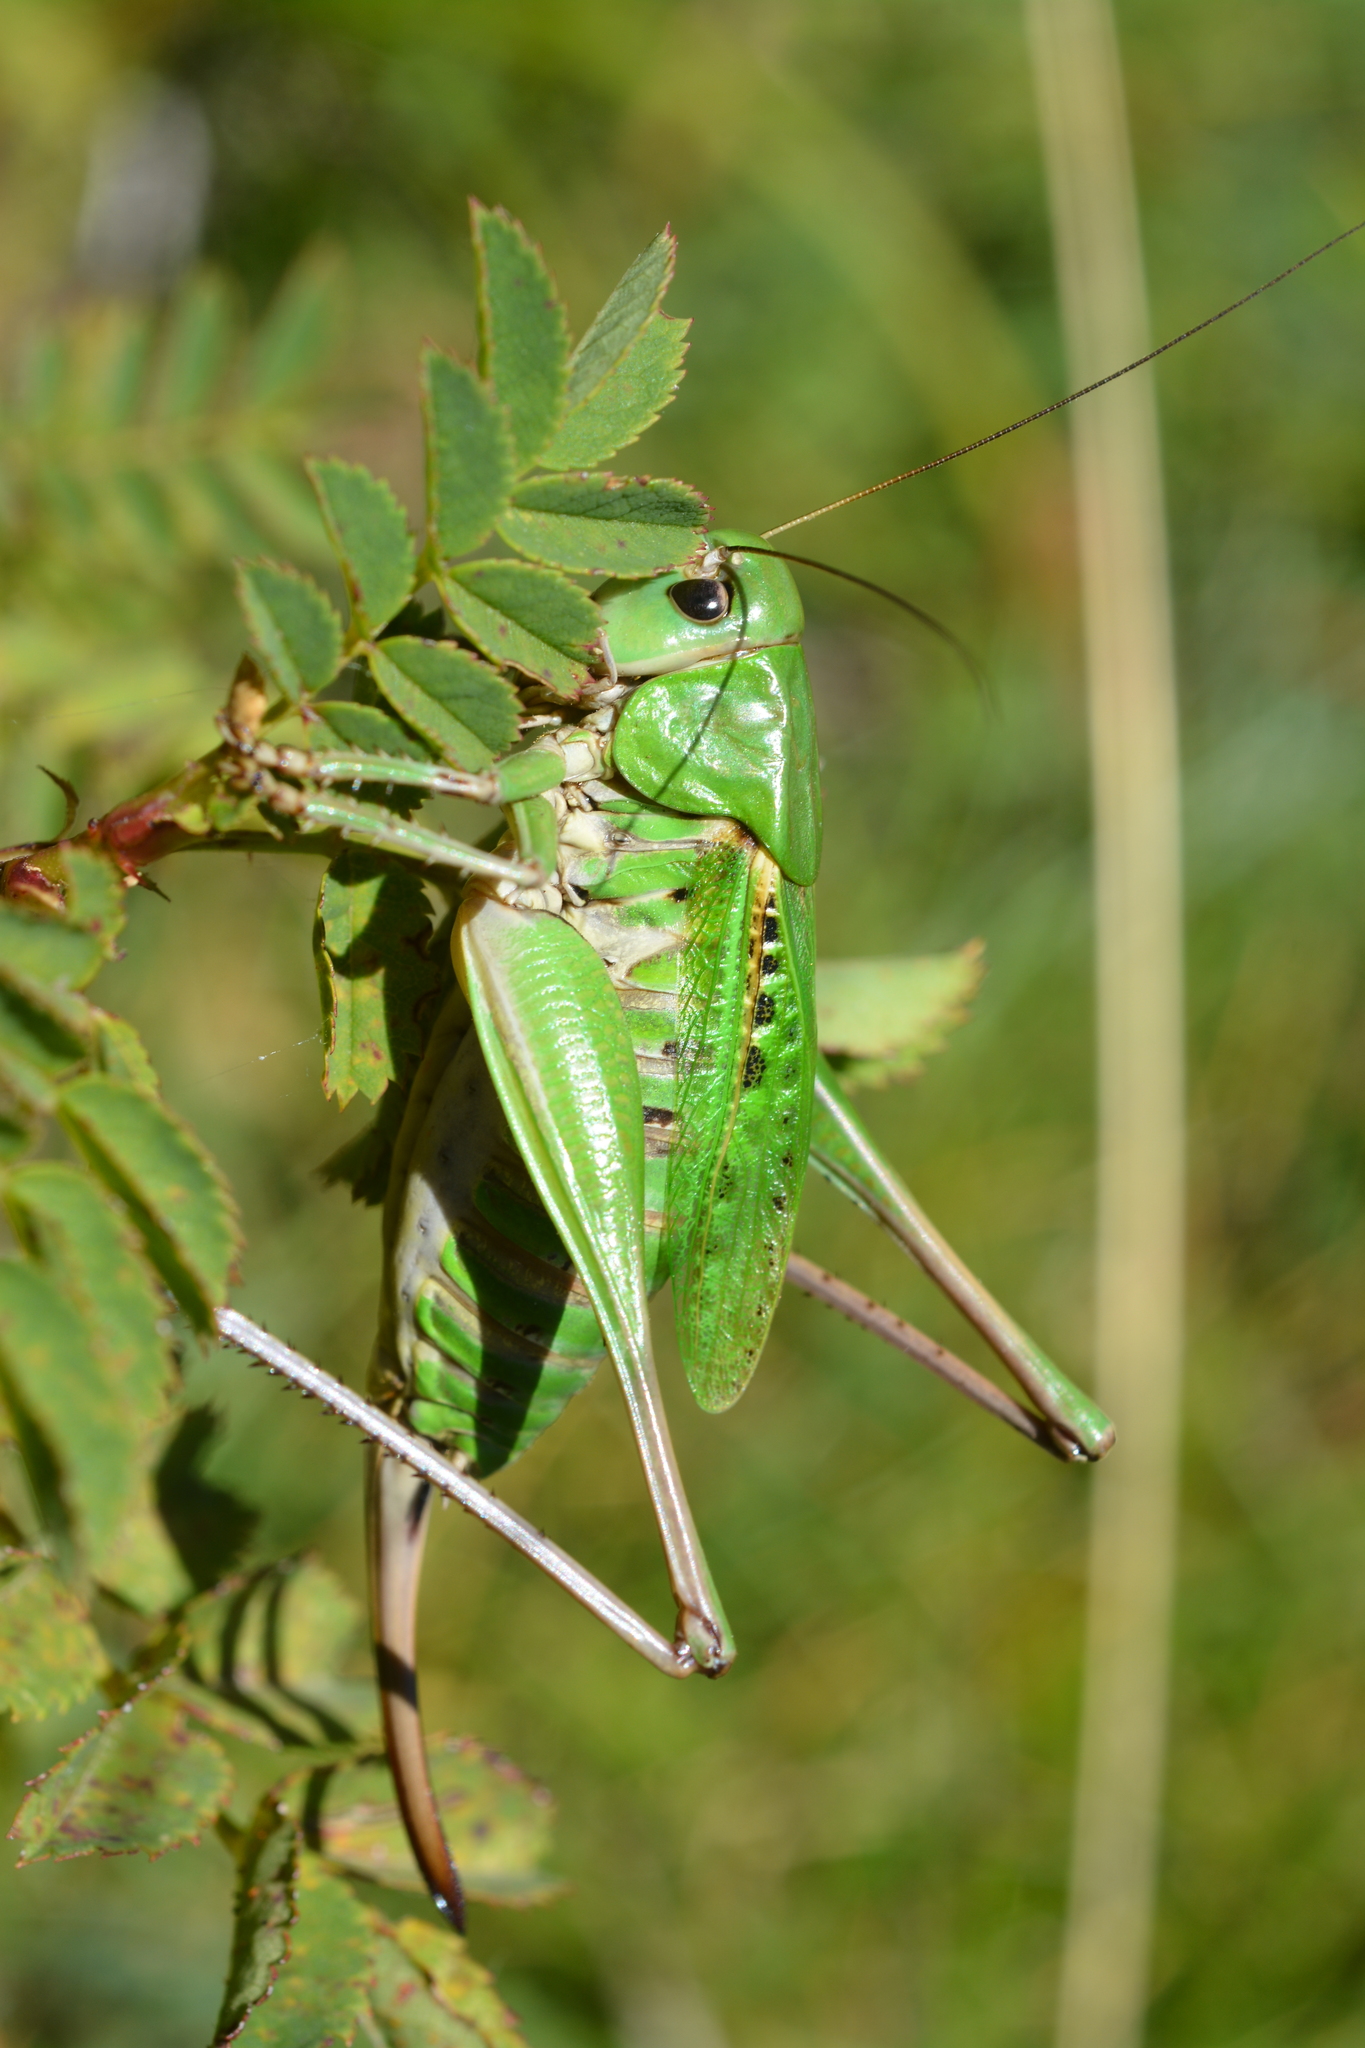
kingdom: Animalia
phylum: Arthropoda
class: Insecta
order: Orthoptera
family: Tettigoniidae
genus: Decticus
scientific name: Decticus verrucivorus
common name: Wart-biter
